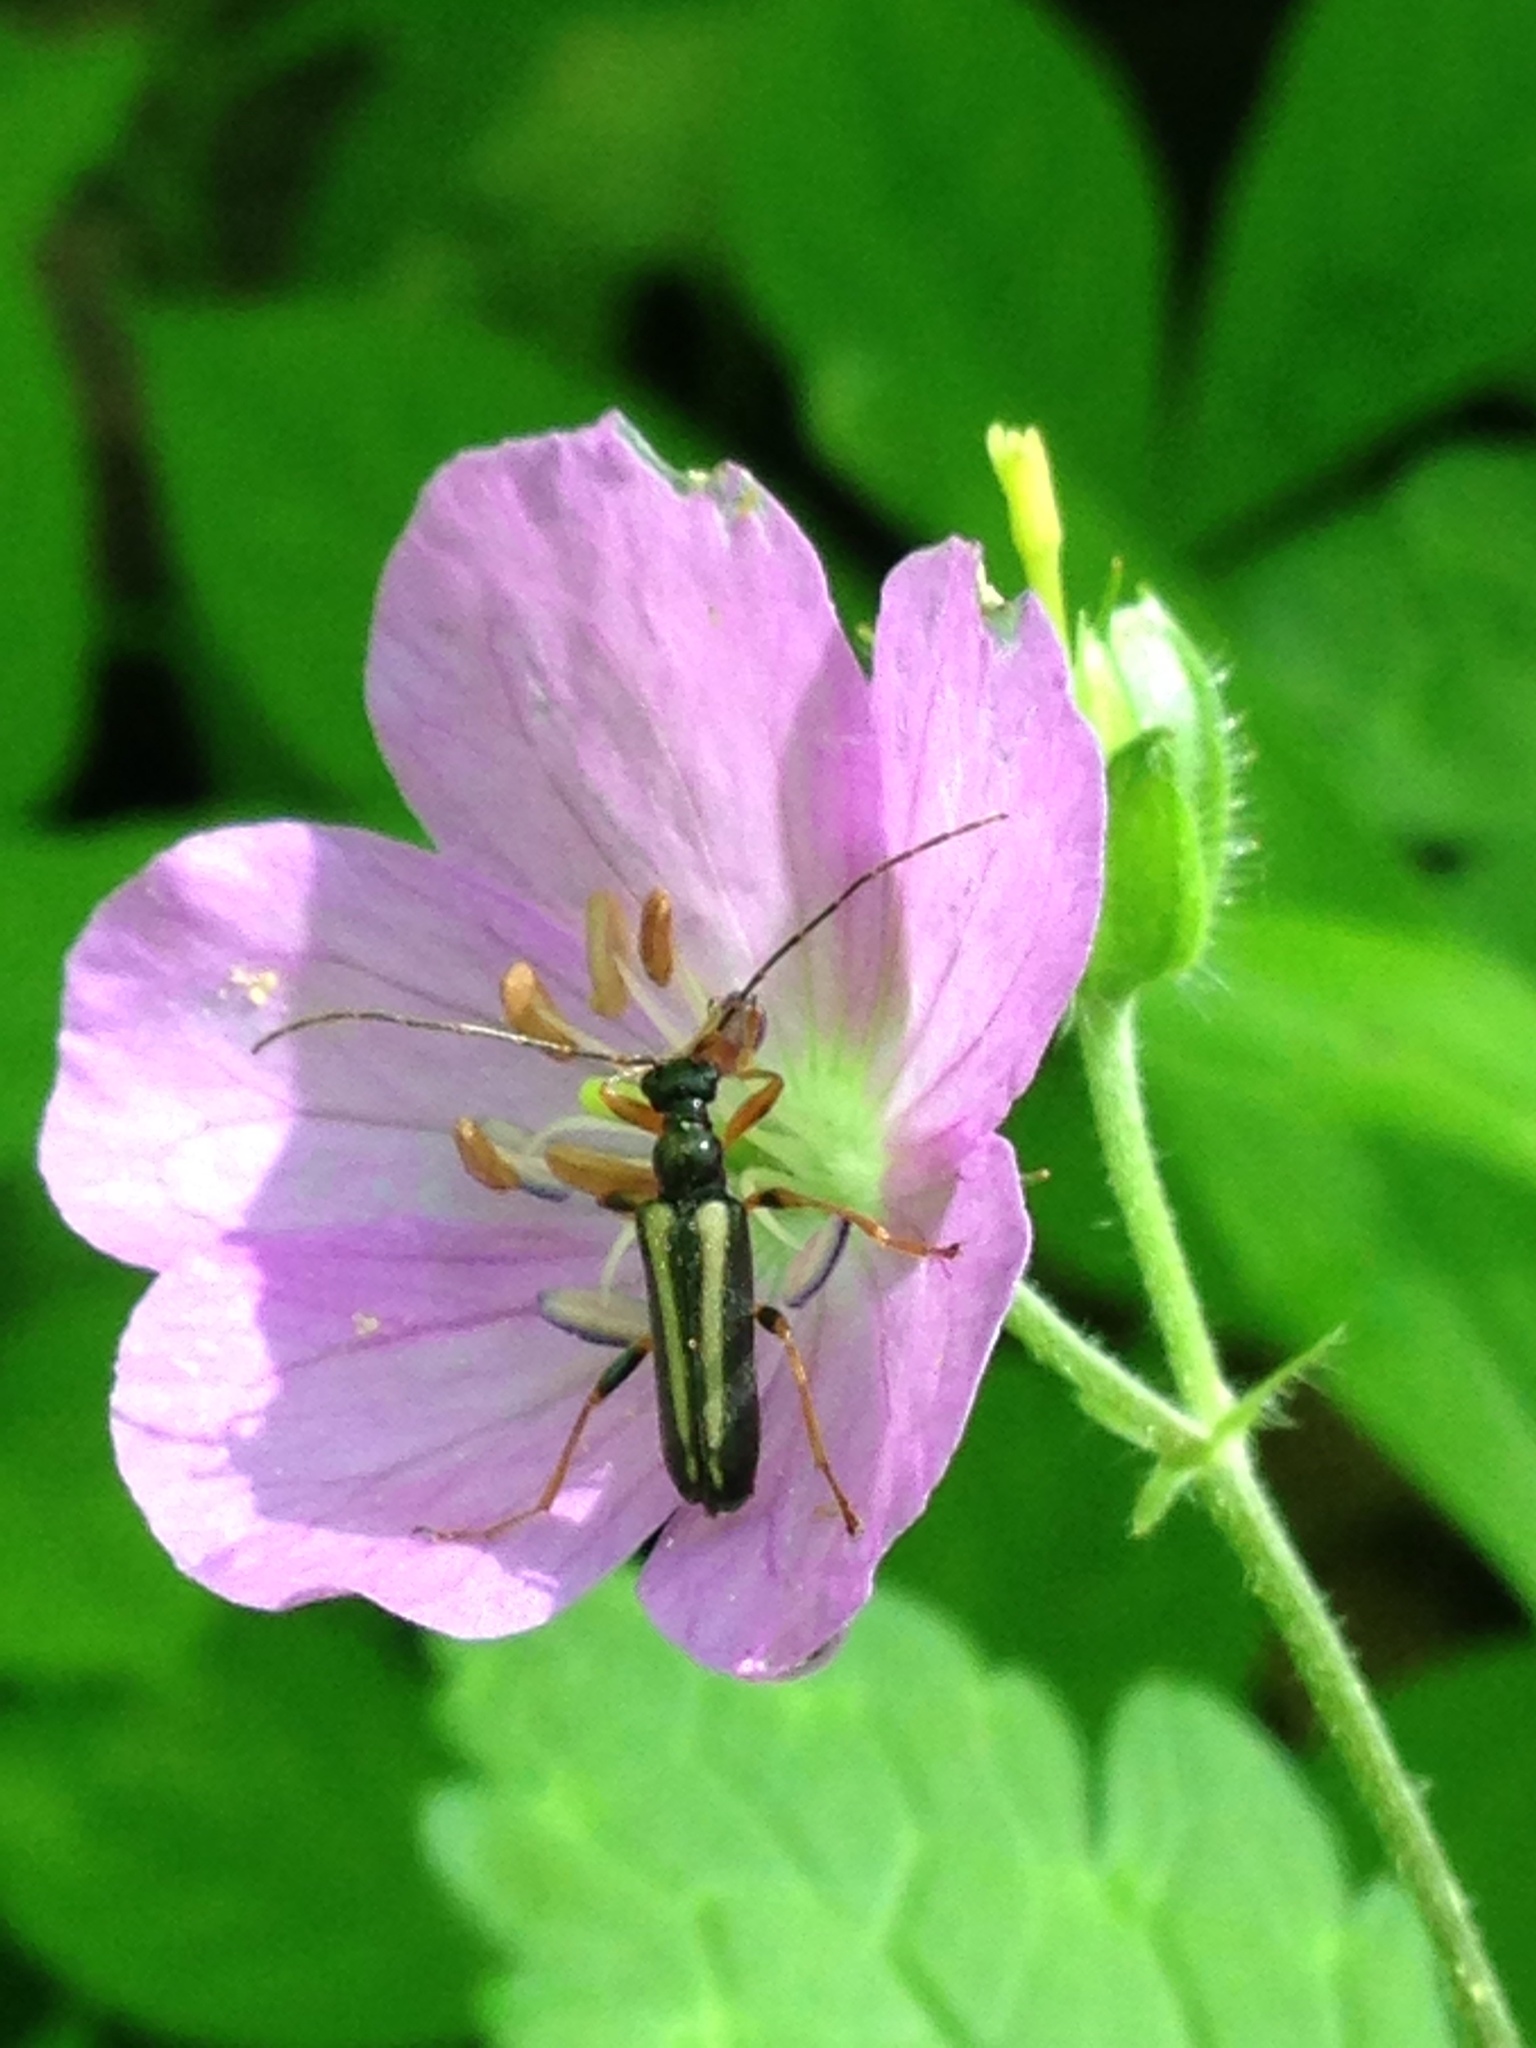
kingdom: Animalia
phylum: Arthropoda
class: Insecta
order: Coleoptera
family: Cerambycidae
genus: Pidonia
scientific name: Pidonia ruficollis
